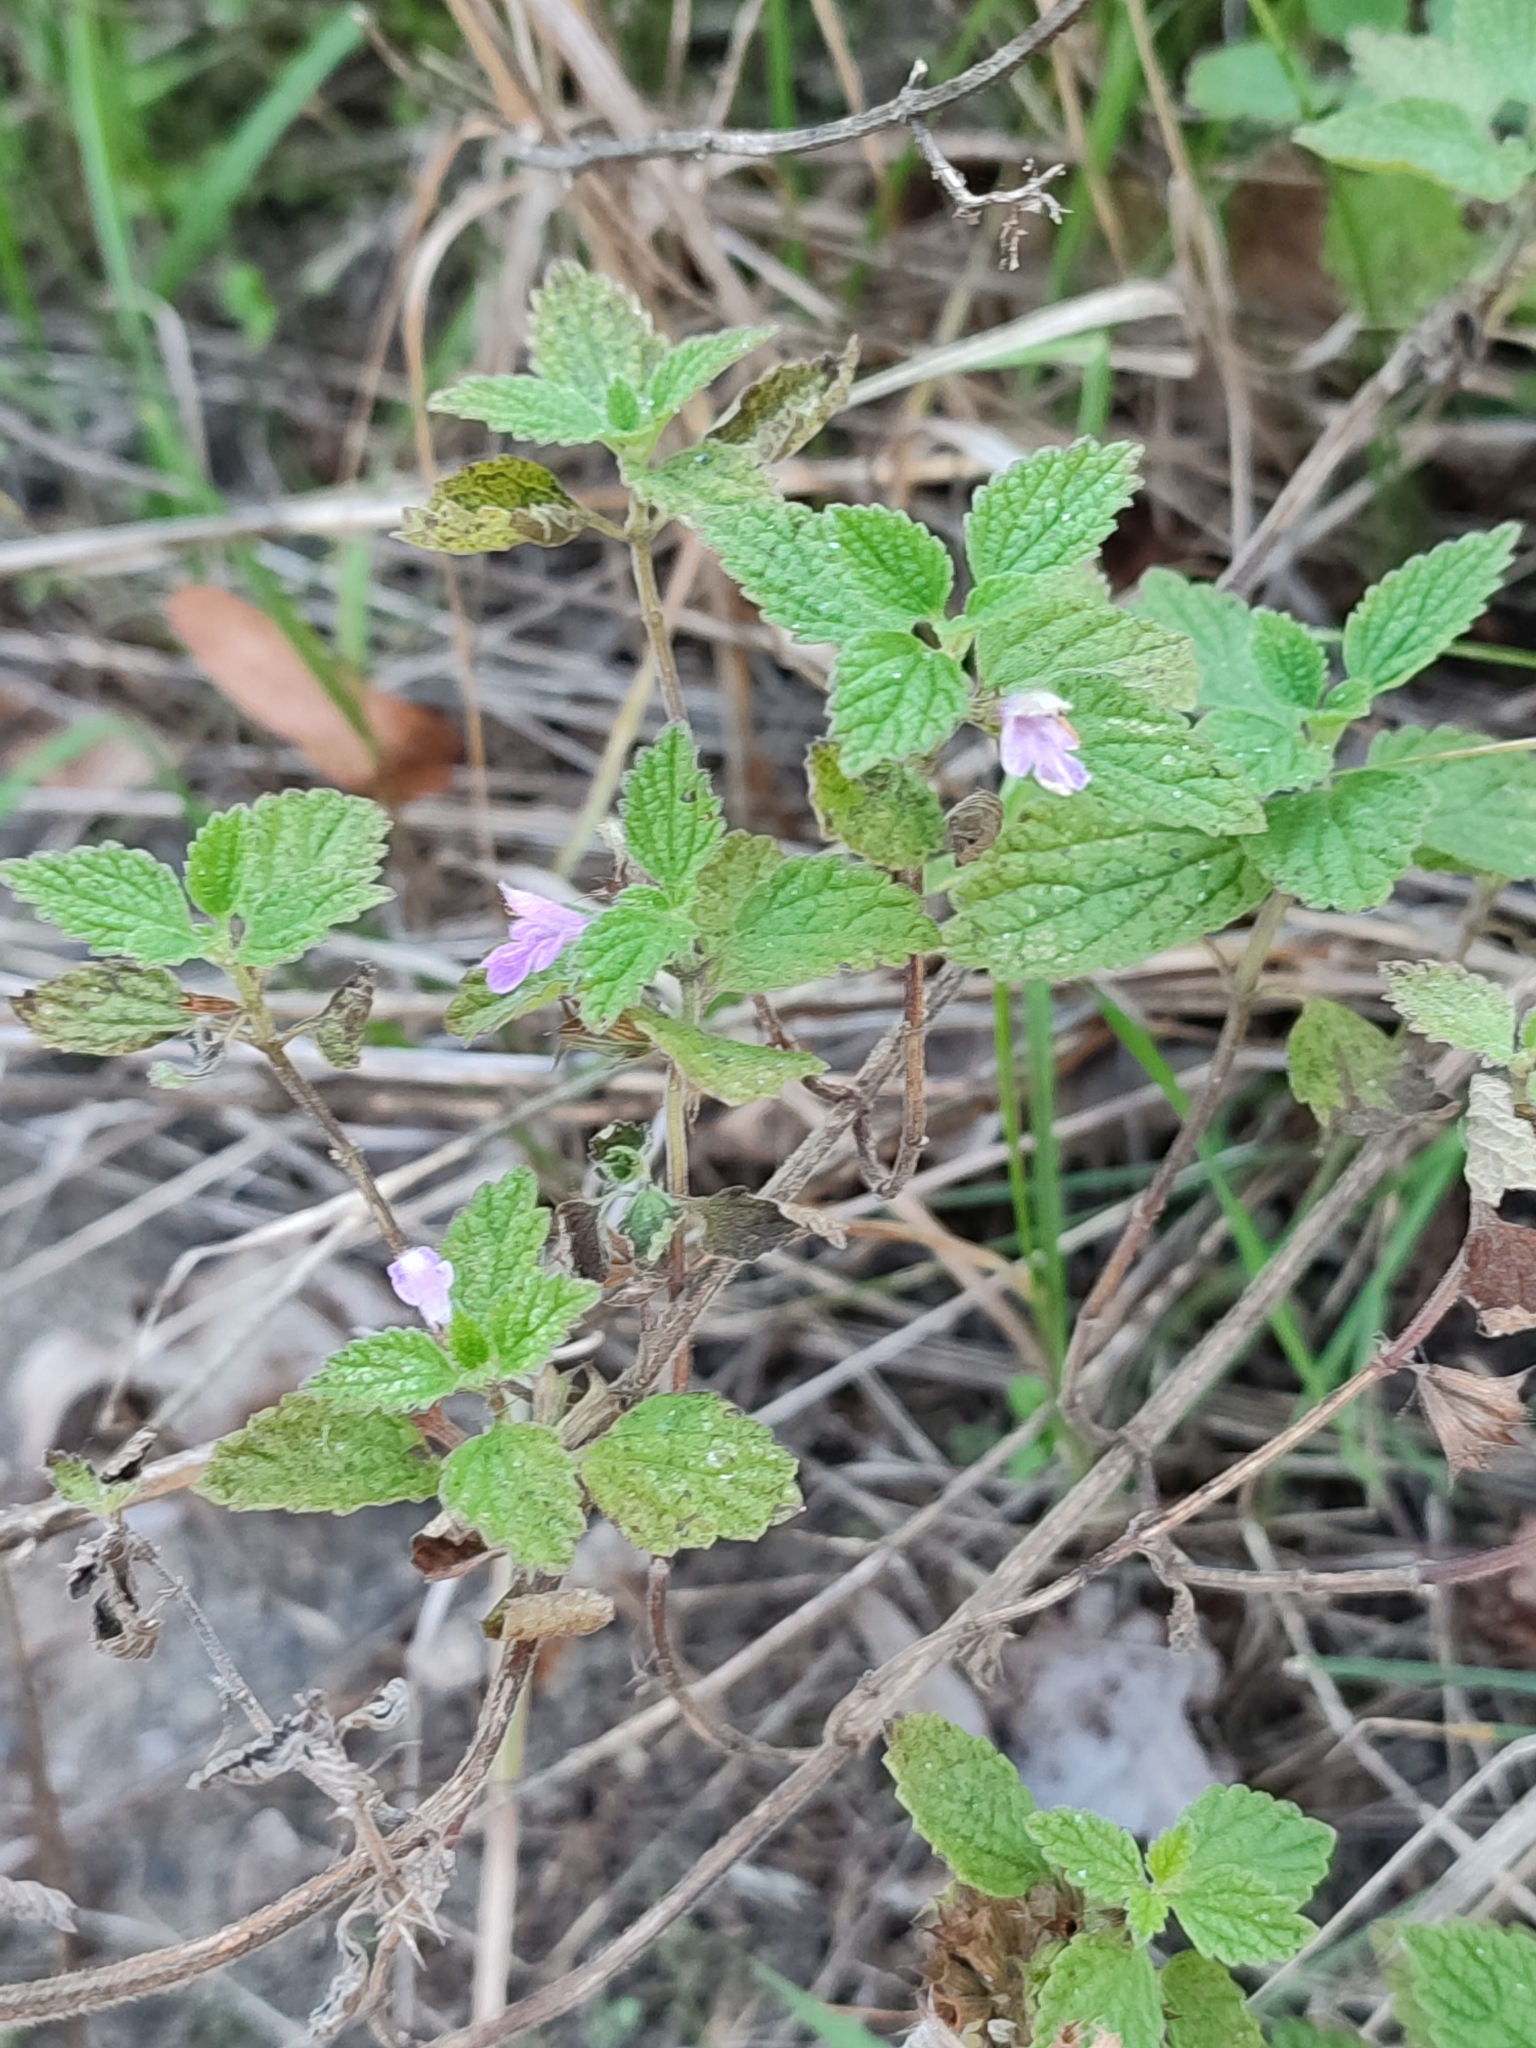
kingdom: Plantae
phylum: Tracheophyta
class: Magnoliopsida
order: Lamiales
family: Lamiaceae
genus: Ballota
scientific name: Ballota nigra
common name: Black horehound
